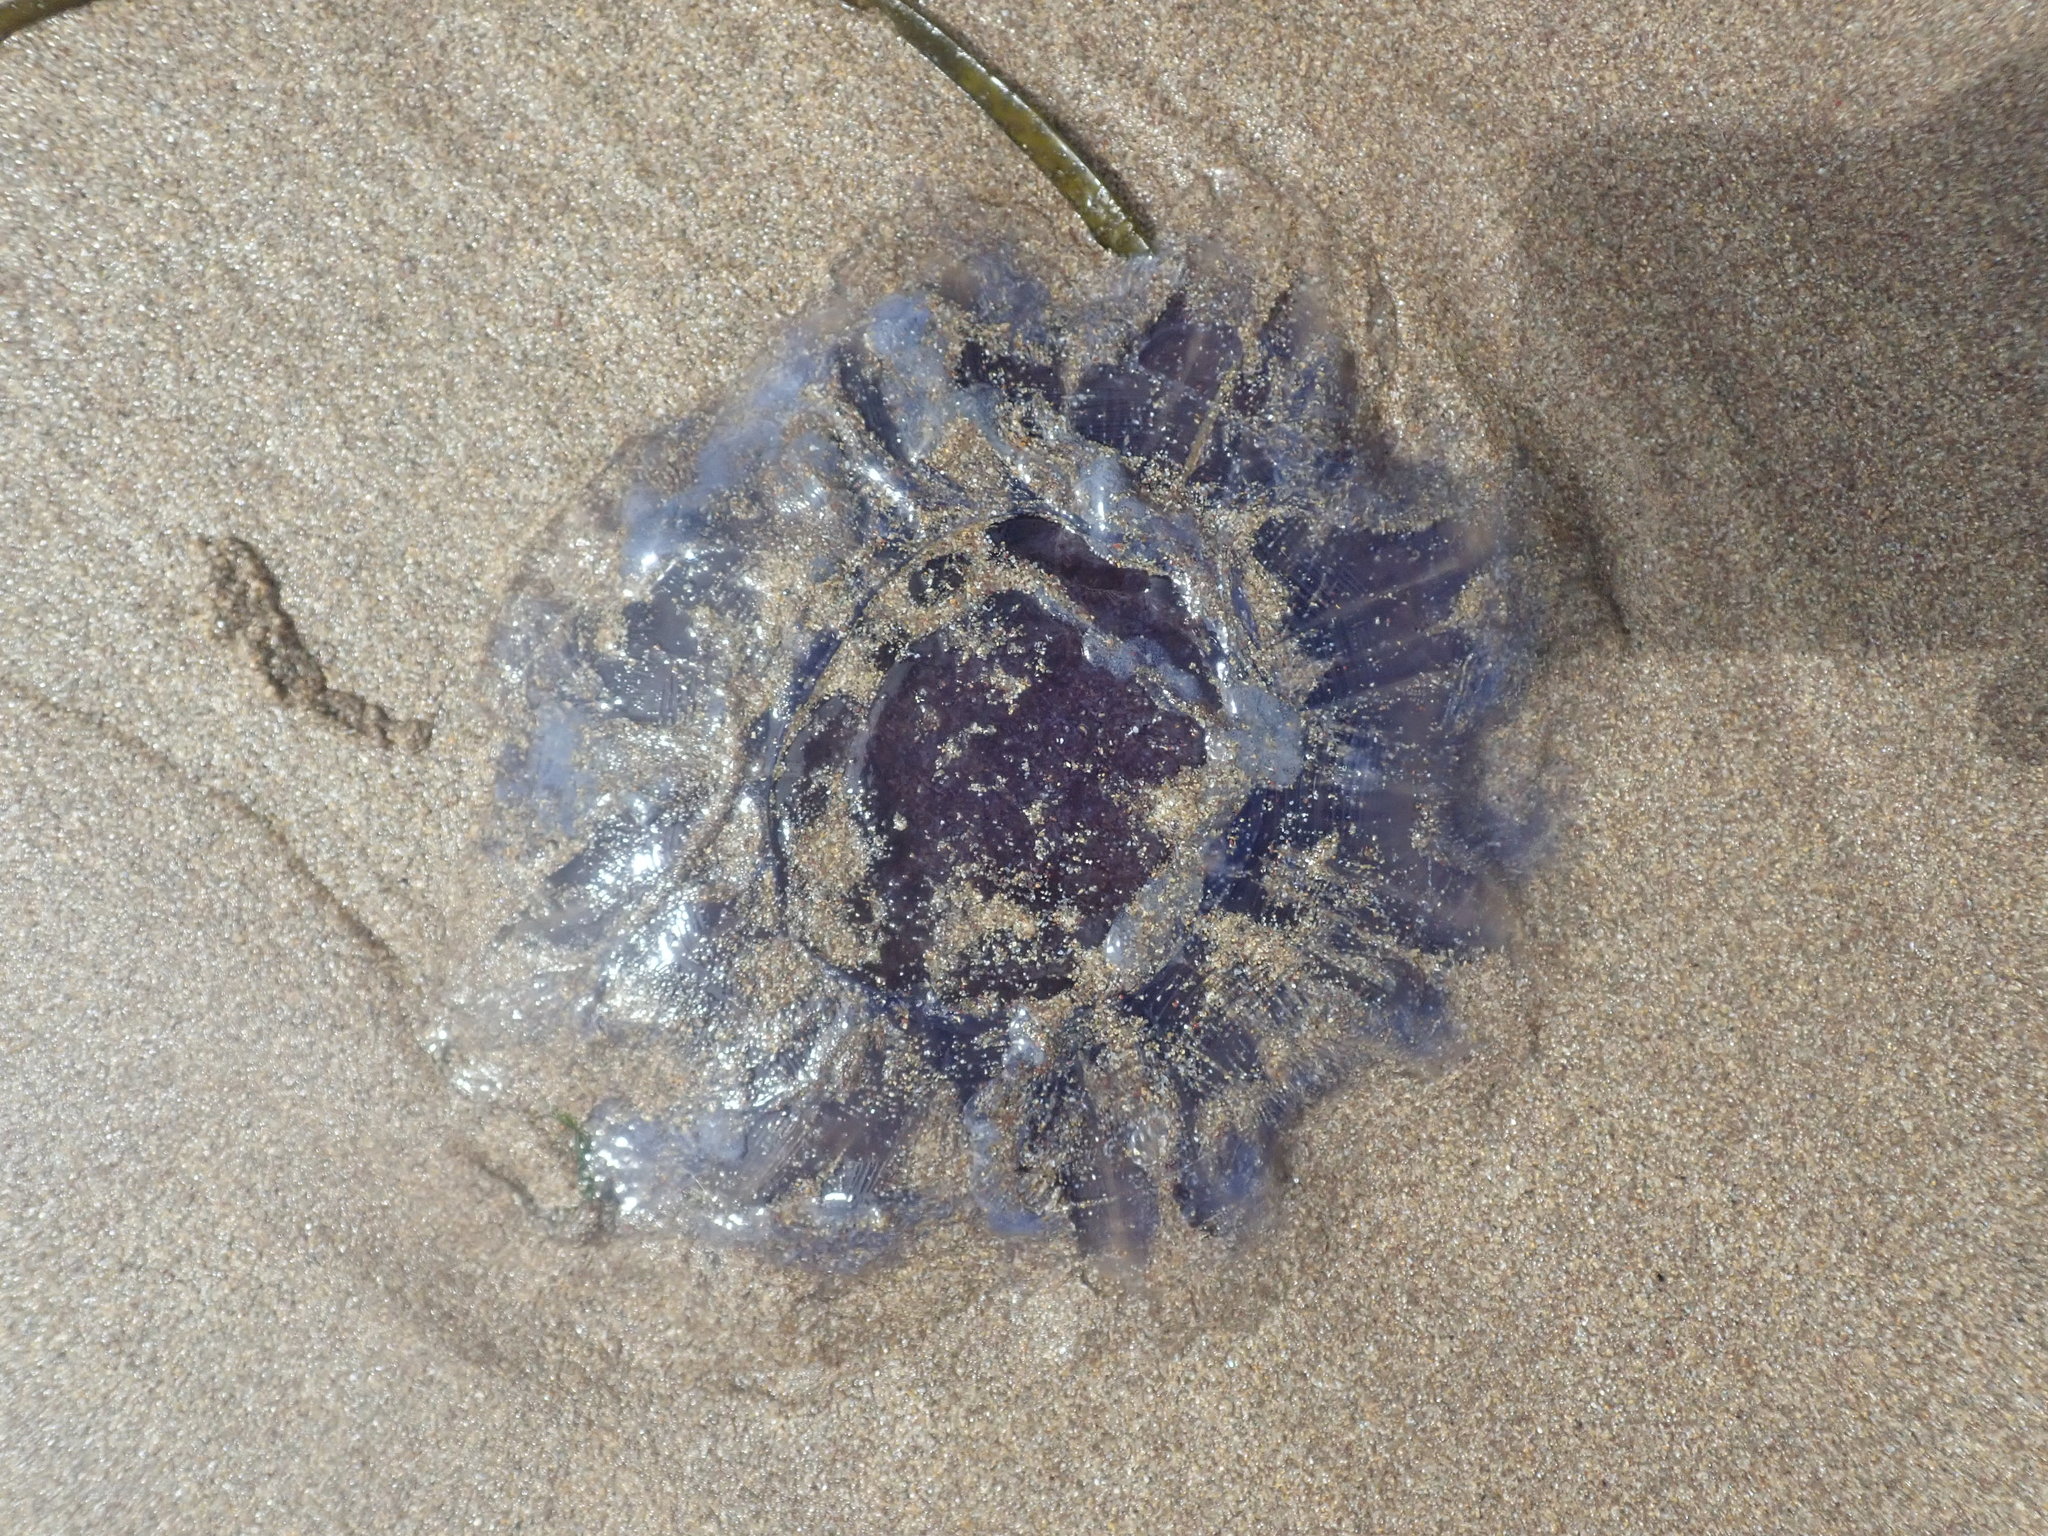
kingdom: Animalia
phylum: Cnidaria
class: Scyphozoa
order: Semaeostomeae
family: Cyaneidae
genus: Cyanea
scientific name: Cyanea lamarckii
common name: Blue jellyfish
